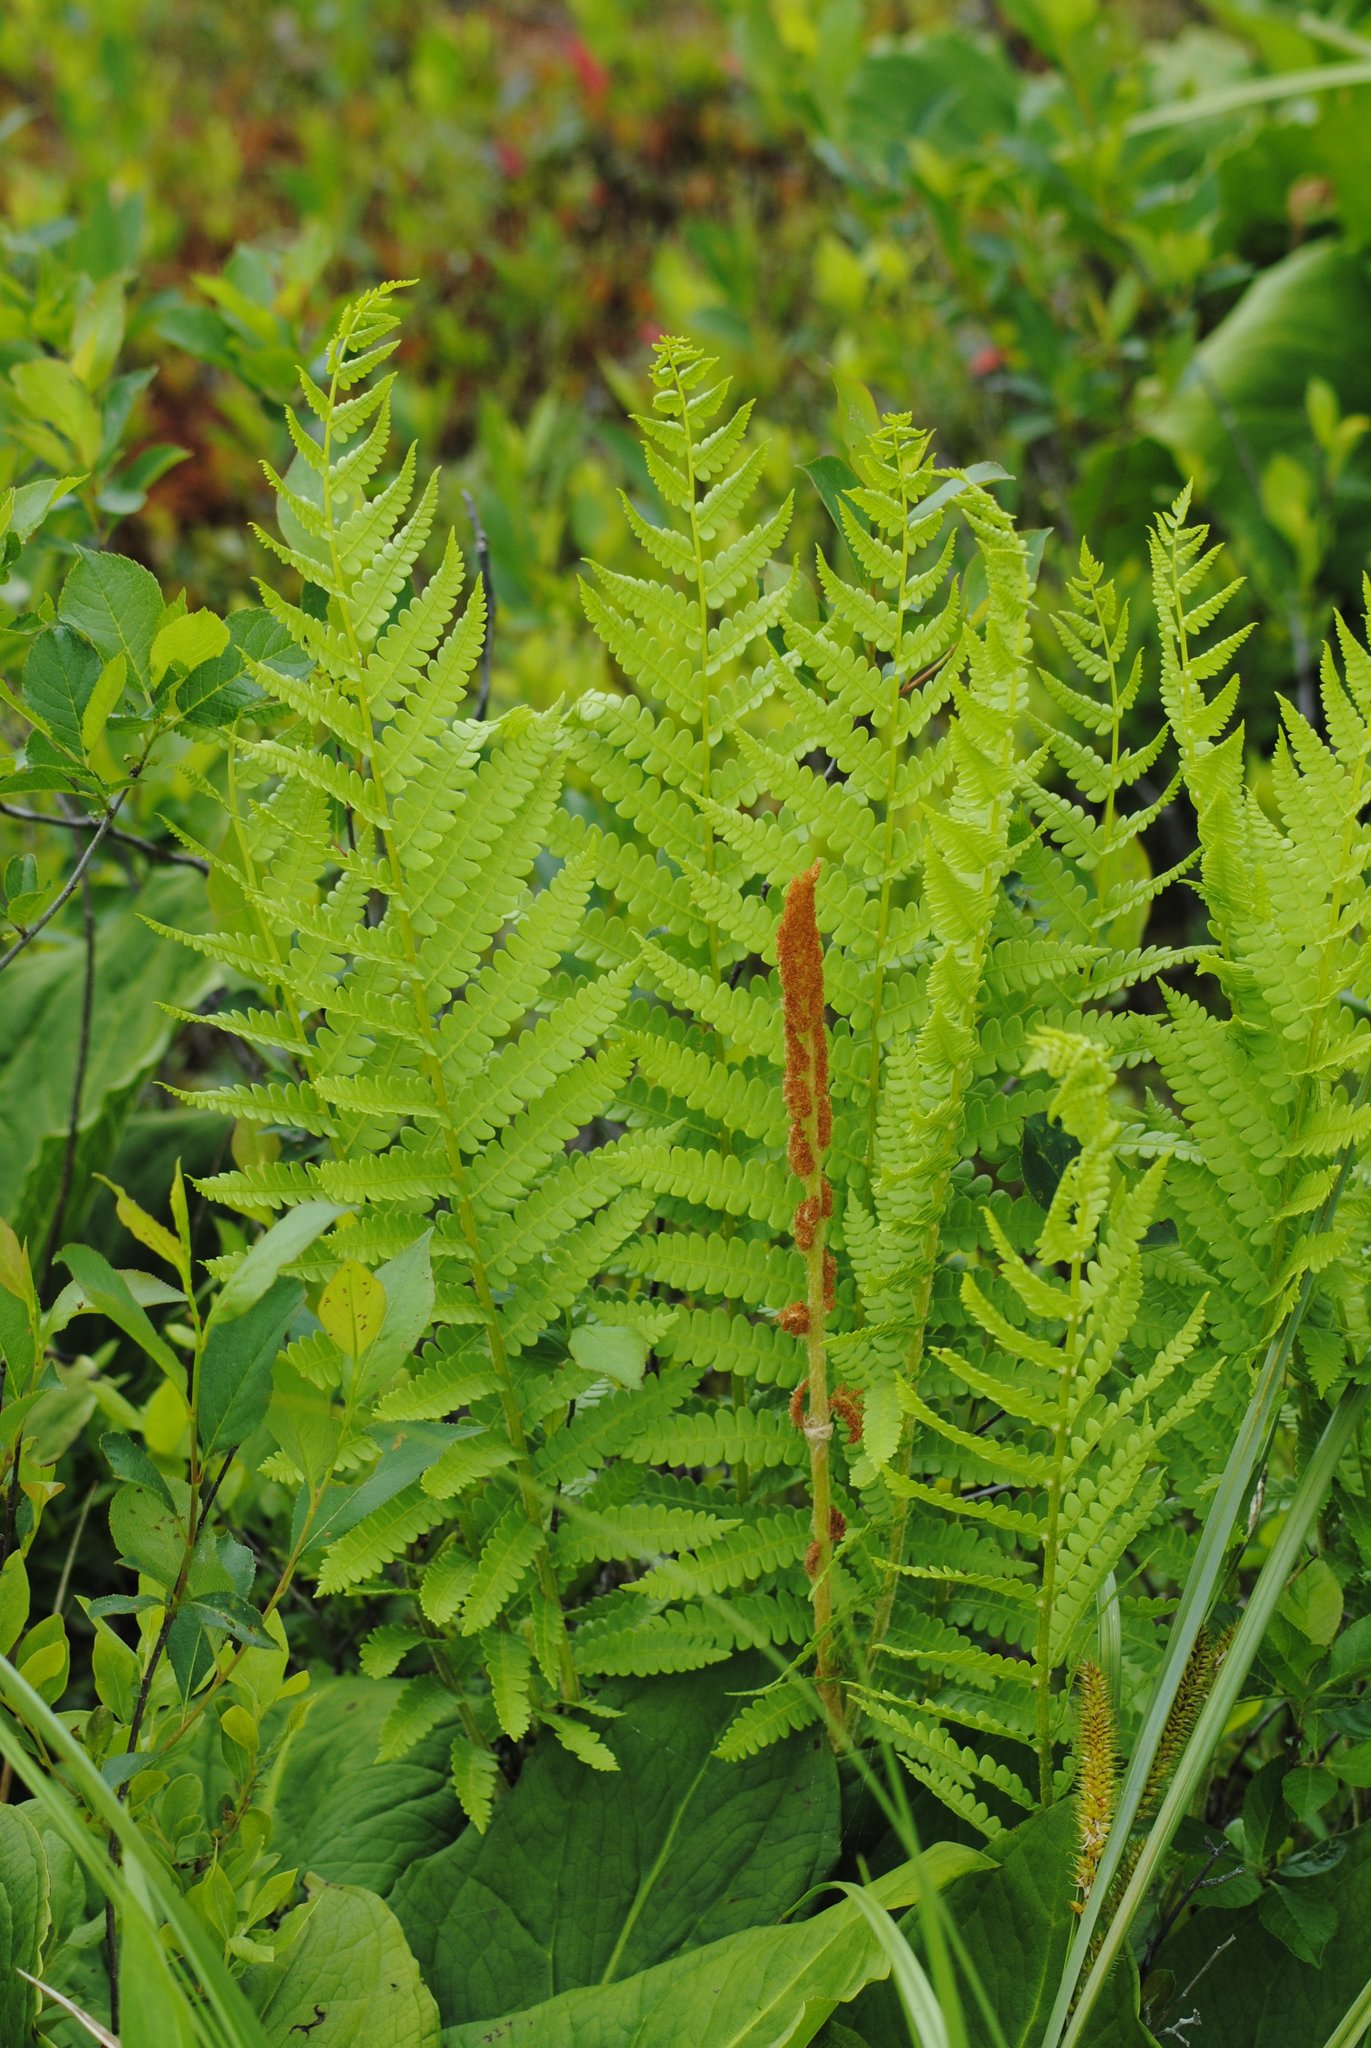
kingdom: Plantae
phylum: Tracheophyta
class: Polypodiopsida
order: Osmundales
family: Osmundaceae
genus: Osmundastrum
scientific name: Osmundastrum cinnamomeum
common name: Cinnamon fern
